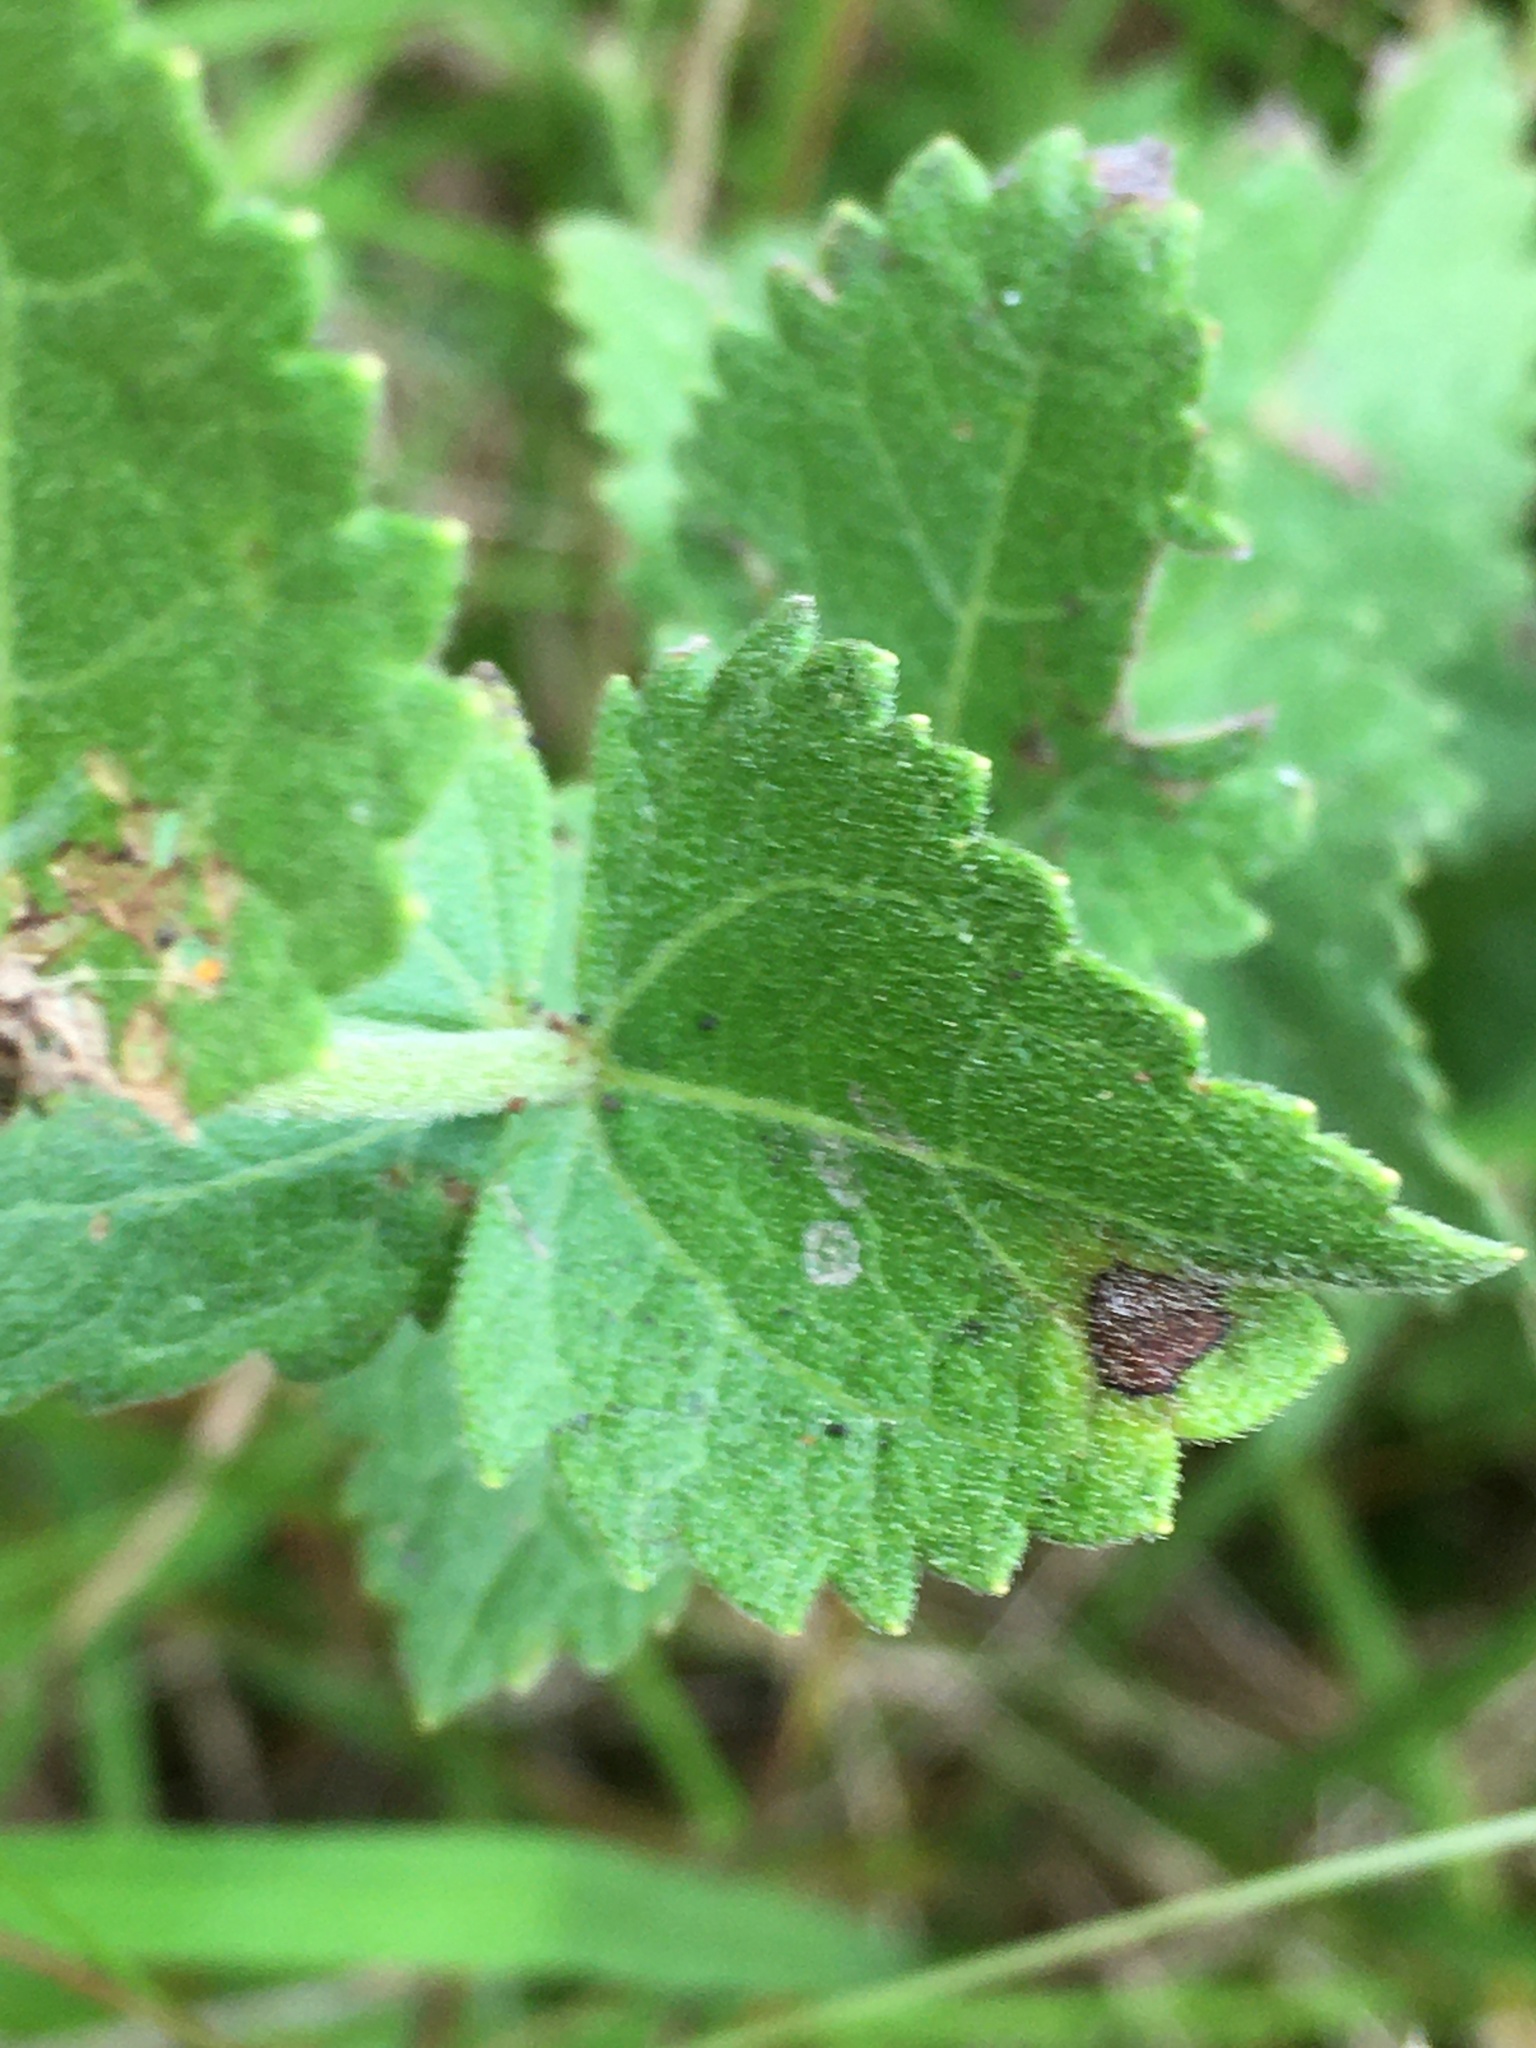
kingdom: Plantae
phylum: Tracheophyta
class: Magnoliopsida
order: Asterales
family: Asteraceae
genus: Eupatorium
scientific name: Eupatorium rotundifolium
